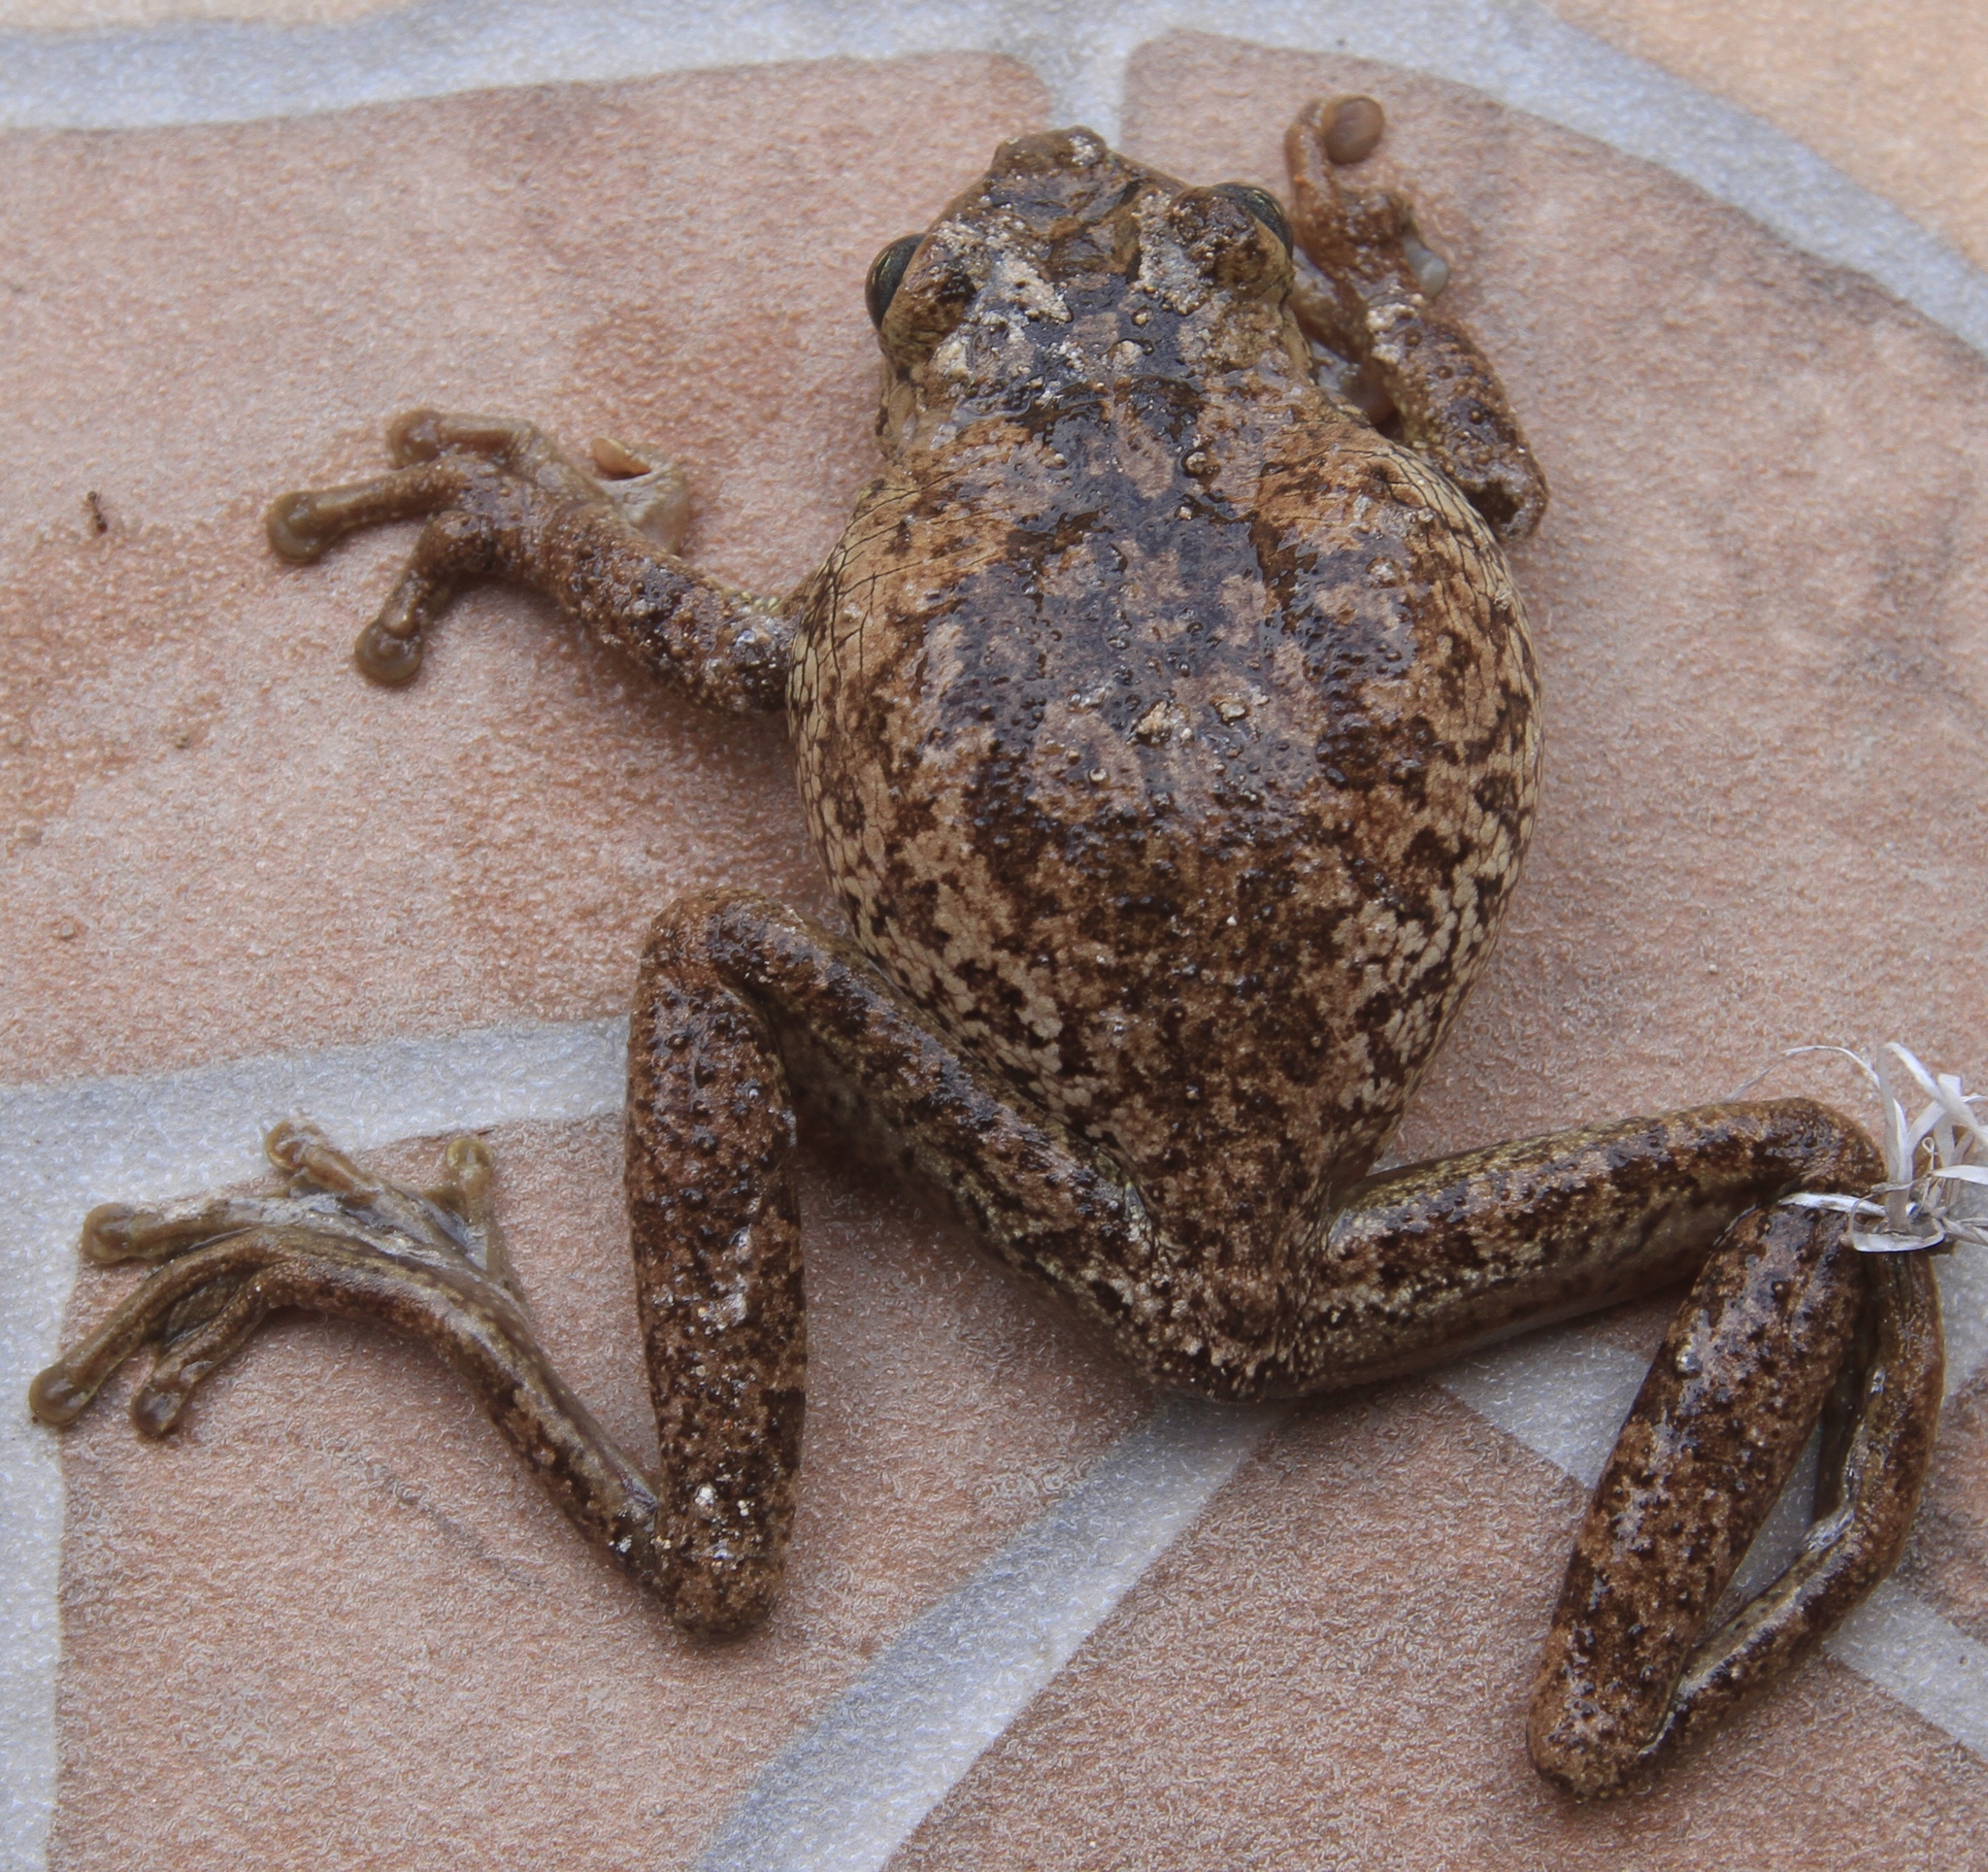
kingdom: Animalia
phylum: Chordata
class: Amphibia
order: Anura
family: Hylidae
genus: Osteopilus
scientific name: Osteopilus dominicensis
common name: Hispaniolan common treefrog
